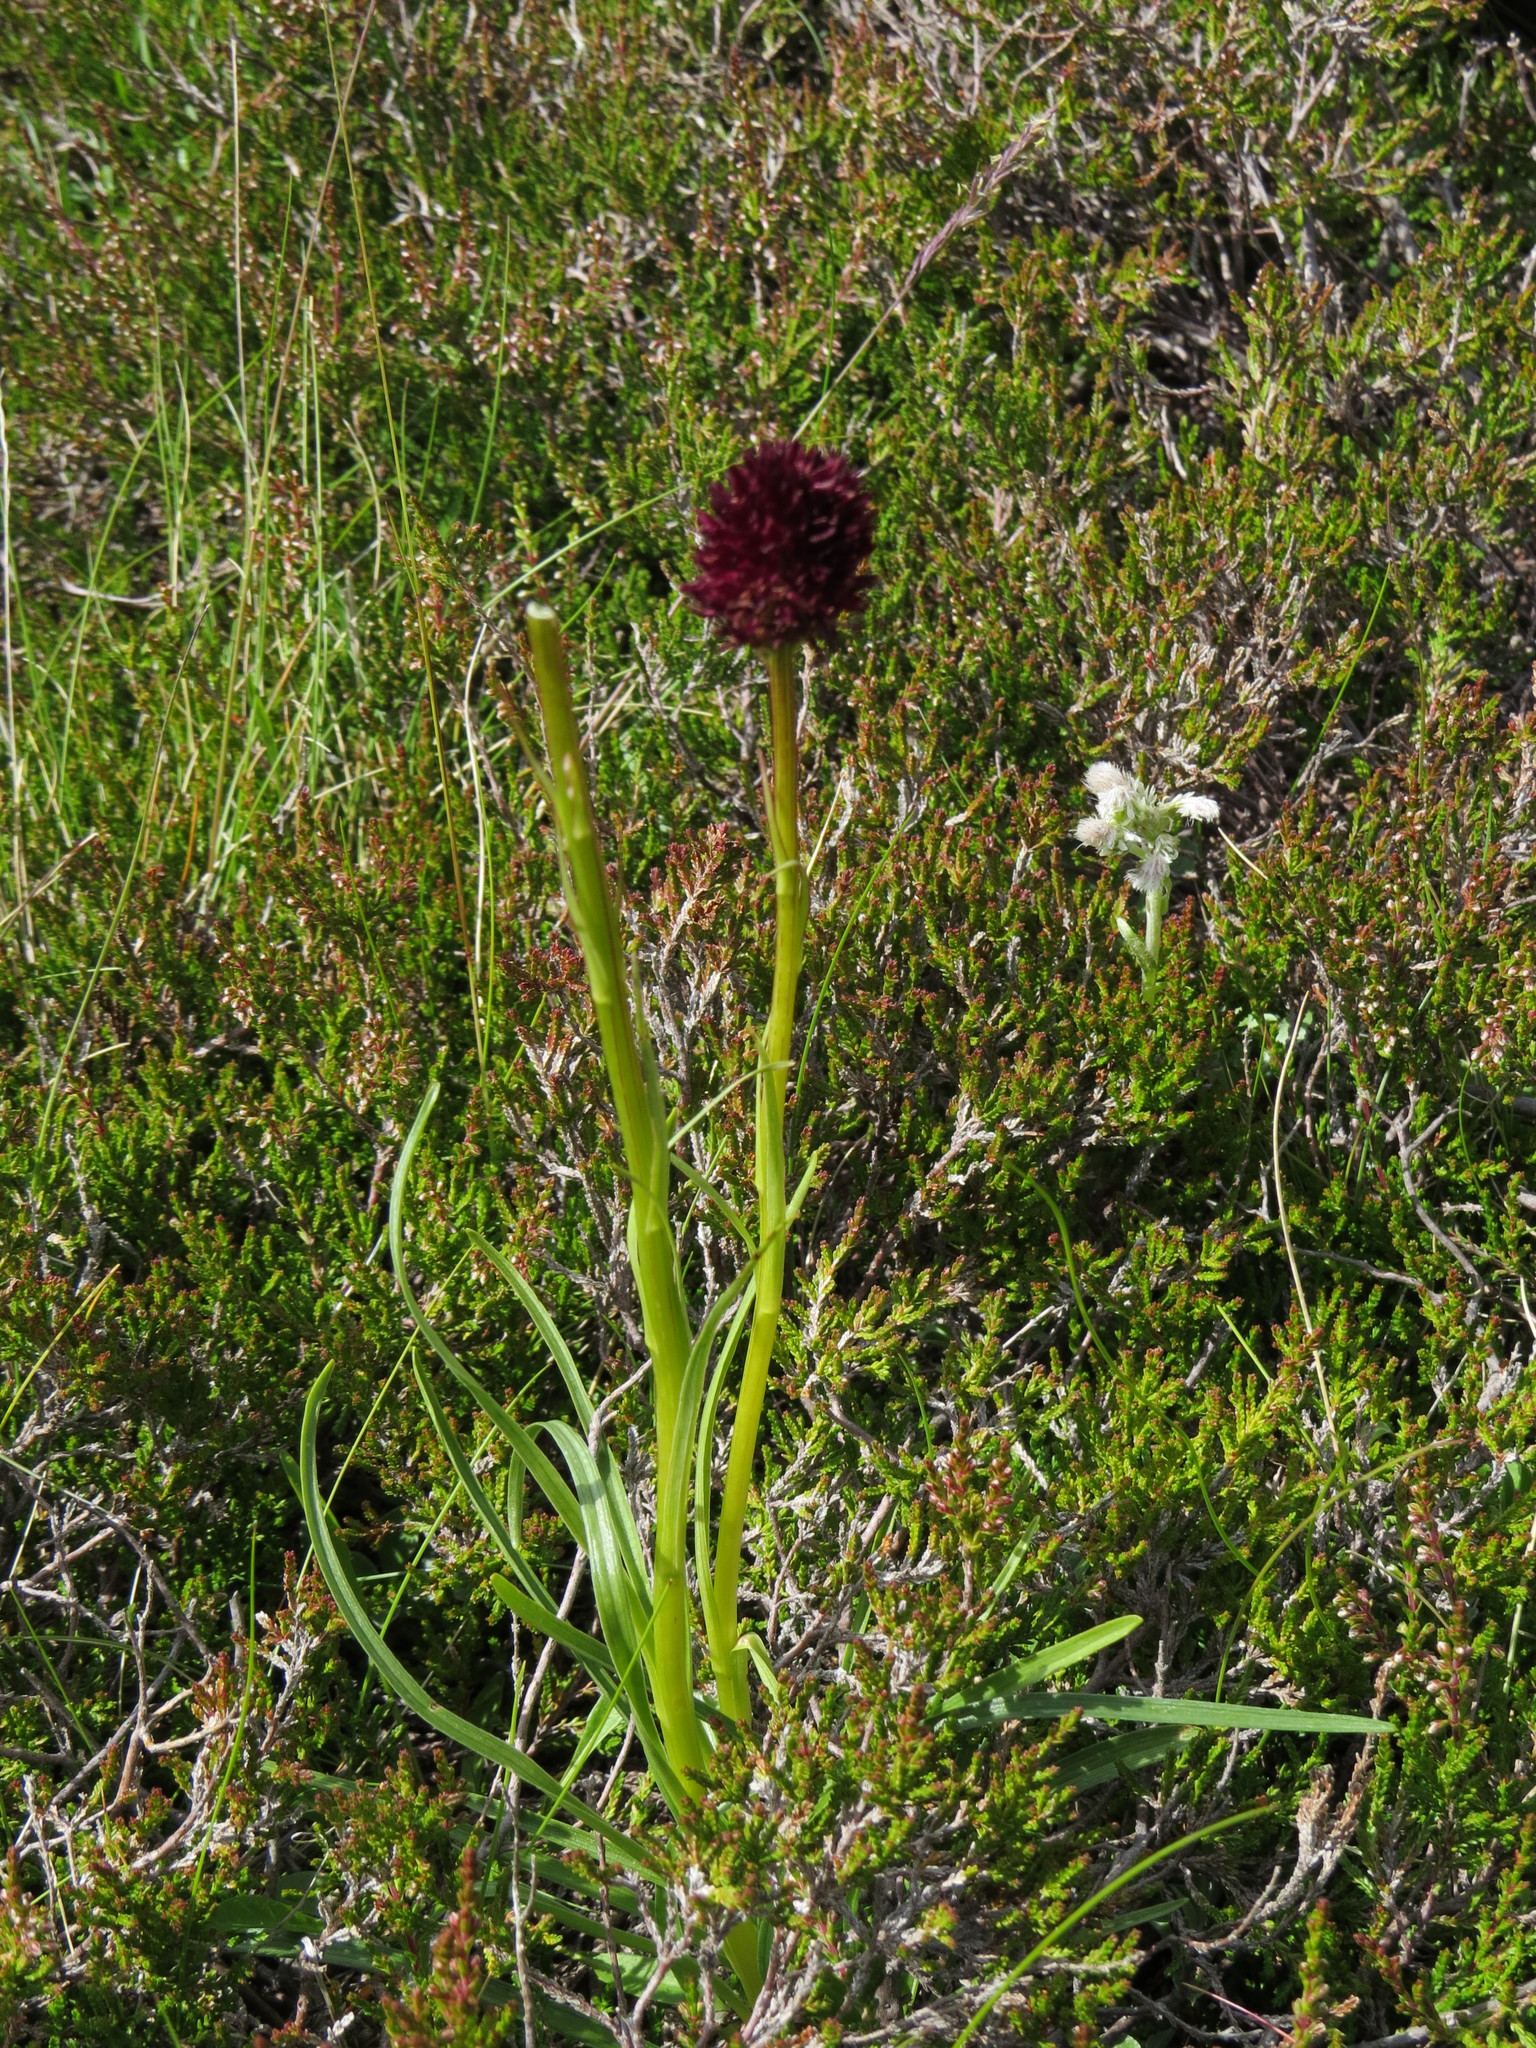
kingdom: Plantae
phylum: Tracheophyta
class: Liliopsida
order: Asparagales
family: Orchidaceae
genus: Gymnadenia
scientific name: Gymnadenia austriaca
